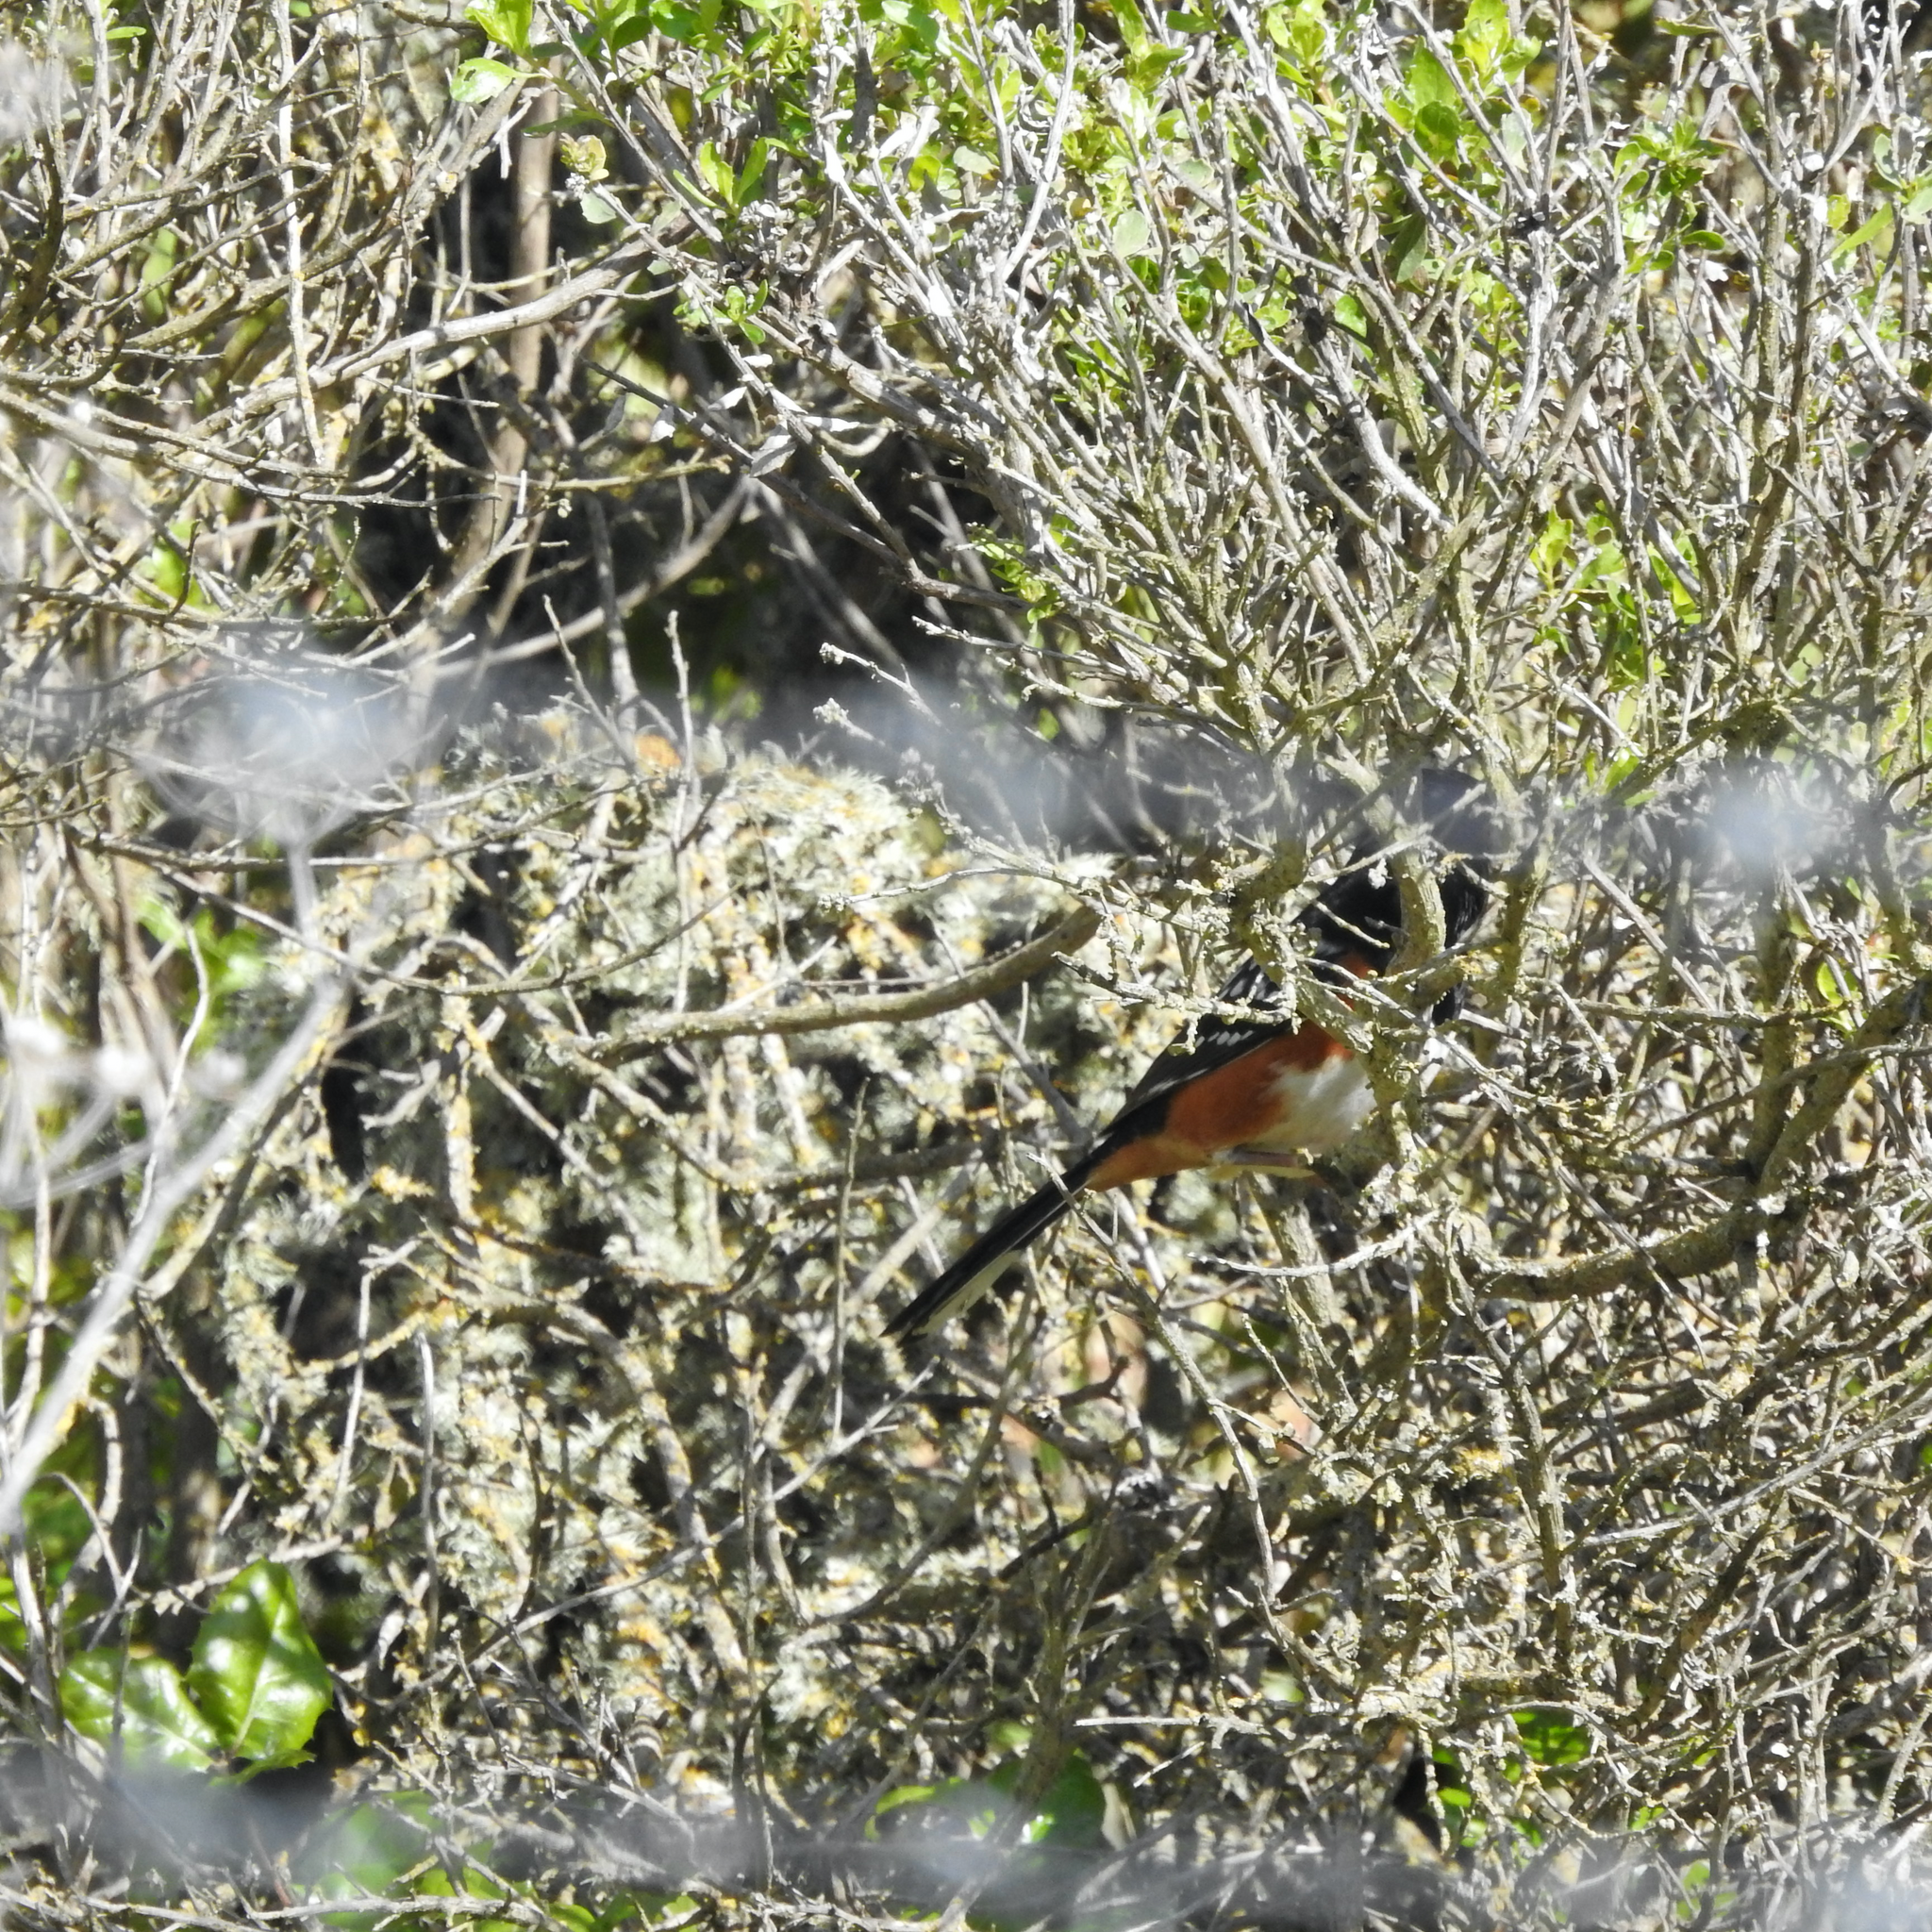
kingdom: Animalia
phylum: Chordata
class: Aves
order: Passeriformes
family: Passerellidae
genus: Pipilo
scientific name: Pipilo maculatus
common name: Spotted towhee
